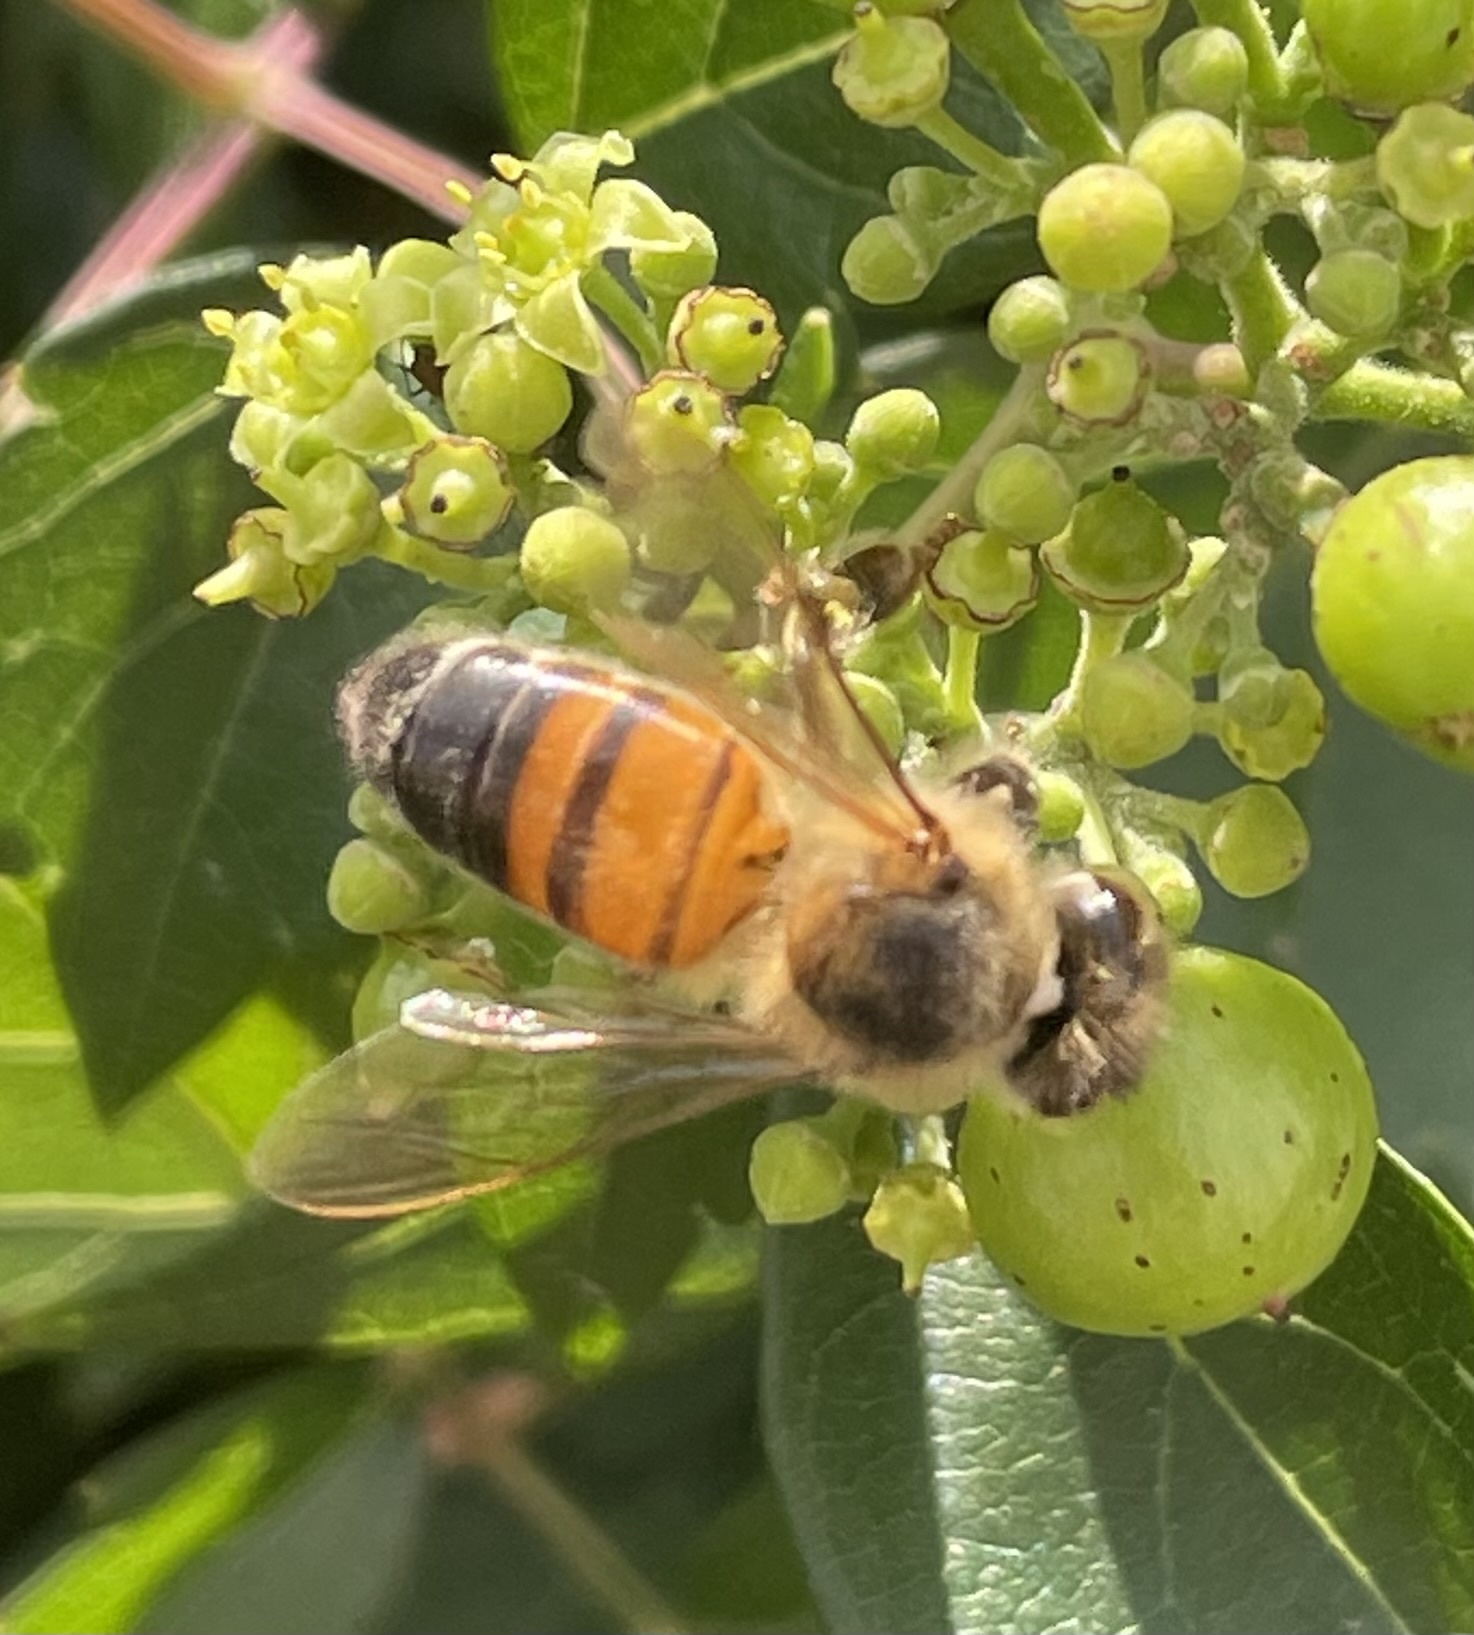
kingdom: Animalia
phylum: Arthropoda
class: Insecta
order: Hymenoptera
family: Apidae
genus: Apis
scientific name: Apis mellifera
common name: Honey bee
